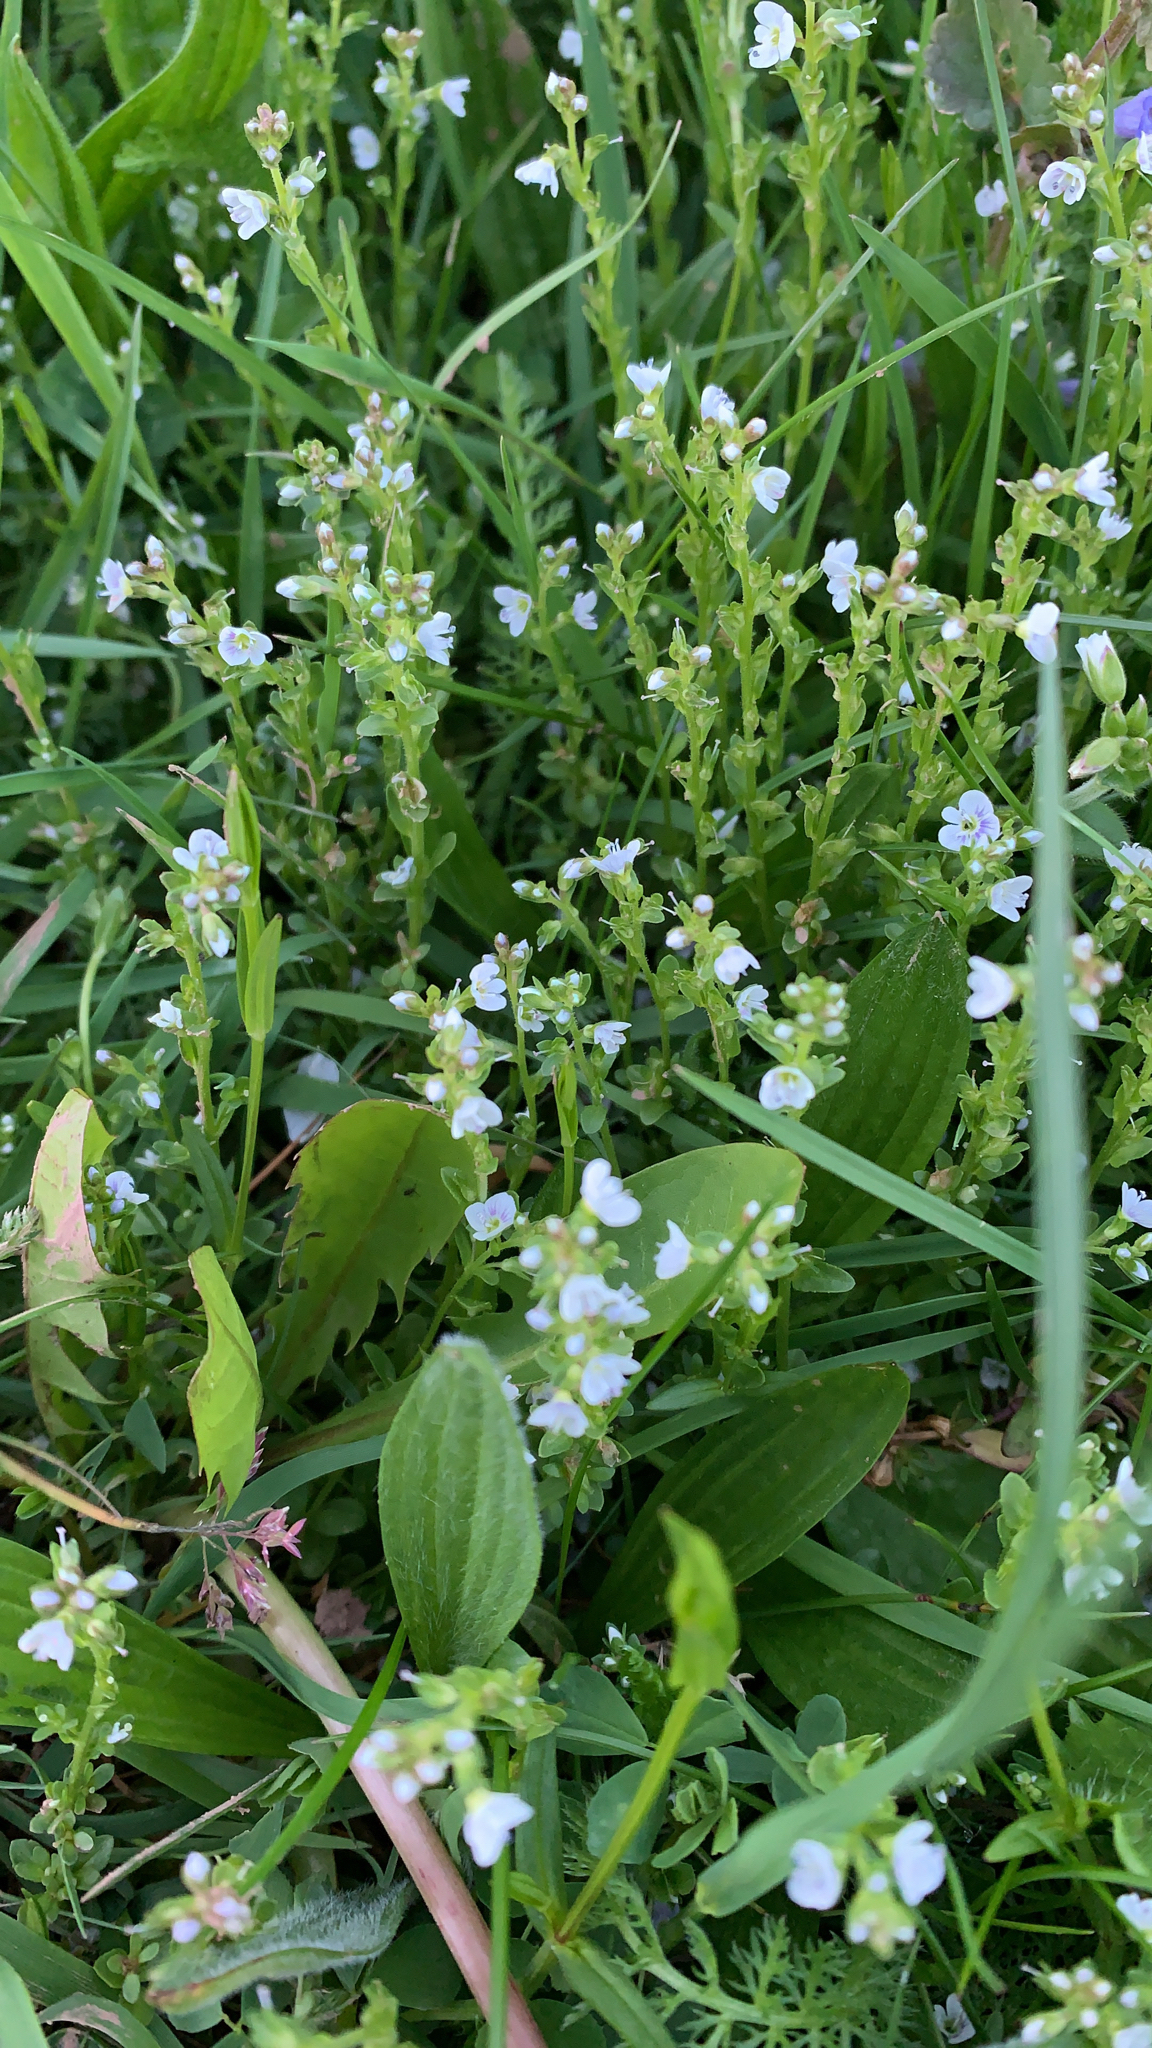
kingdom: Plantae
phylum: Tracheophyta
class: Magnoliopsida
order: Lamiales
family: Plantaginaceae
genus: Veronica
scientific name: Veronica serpyllifolia
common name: Thyme-leaved speedwell
